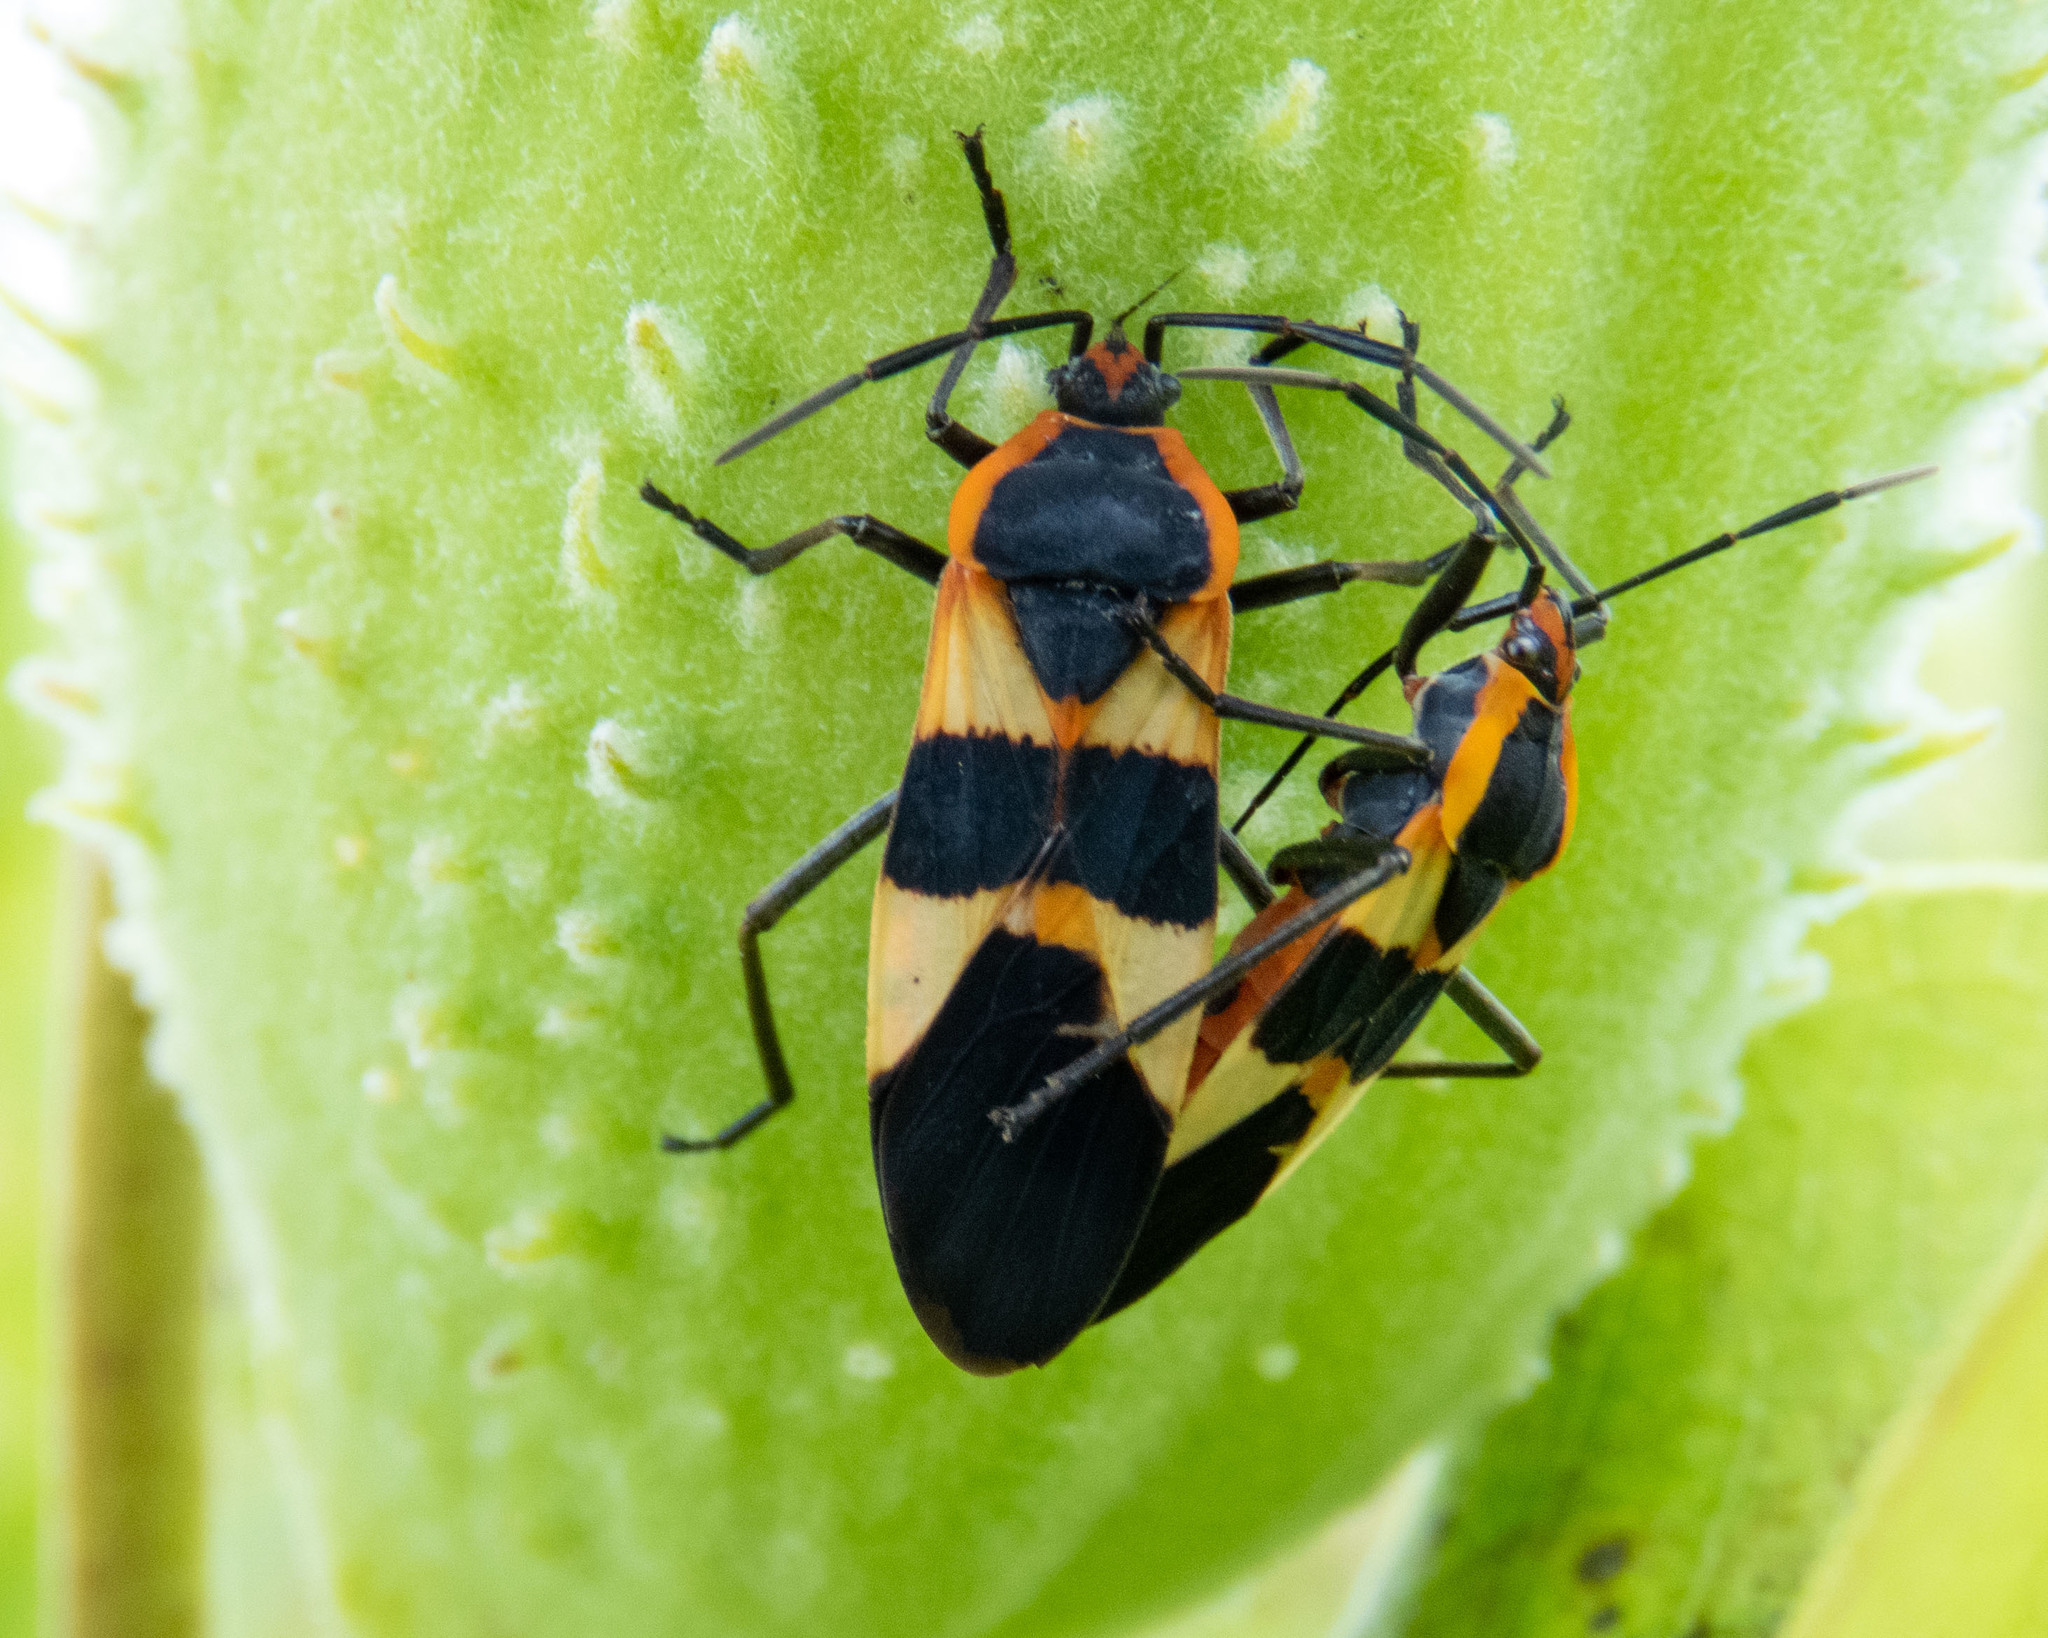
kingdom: Animalia
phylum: Arthropoda
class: Insecta
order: Hemiptera
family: Lygaeidae
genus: Oncopeltus
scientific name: Oncopeltus fasciatus
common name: Large milkweed bug
